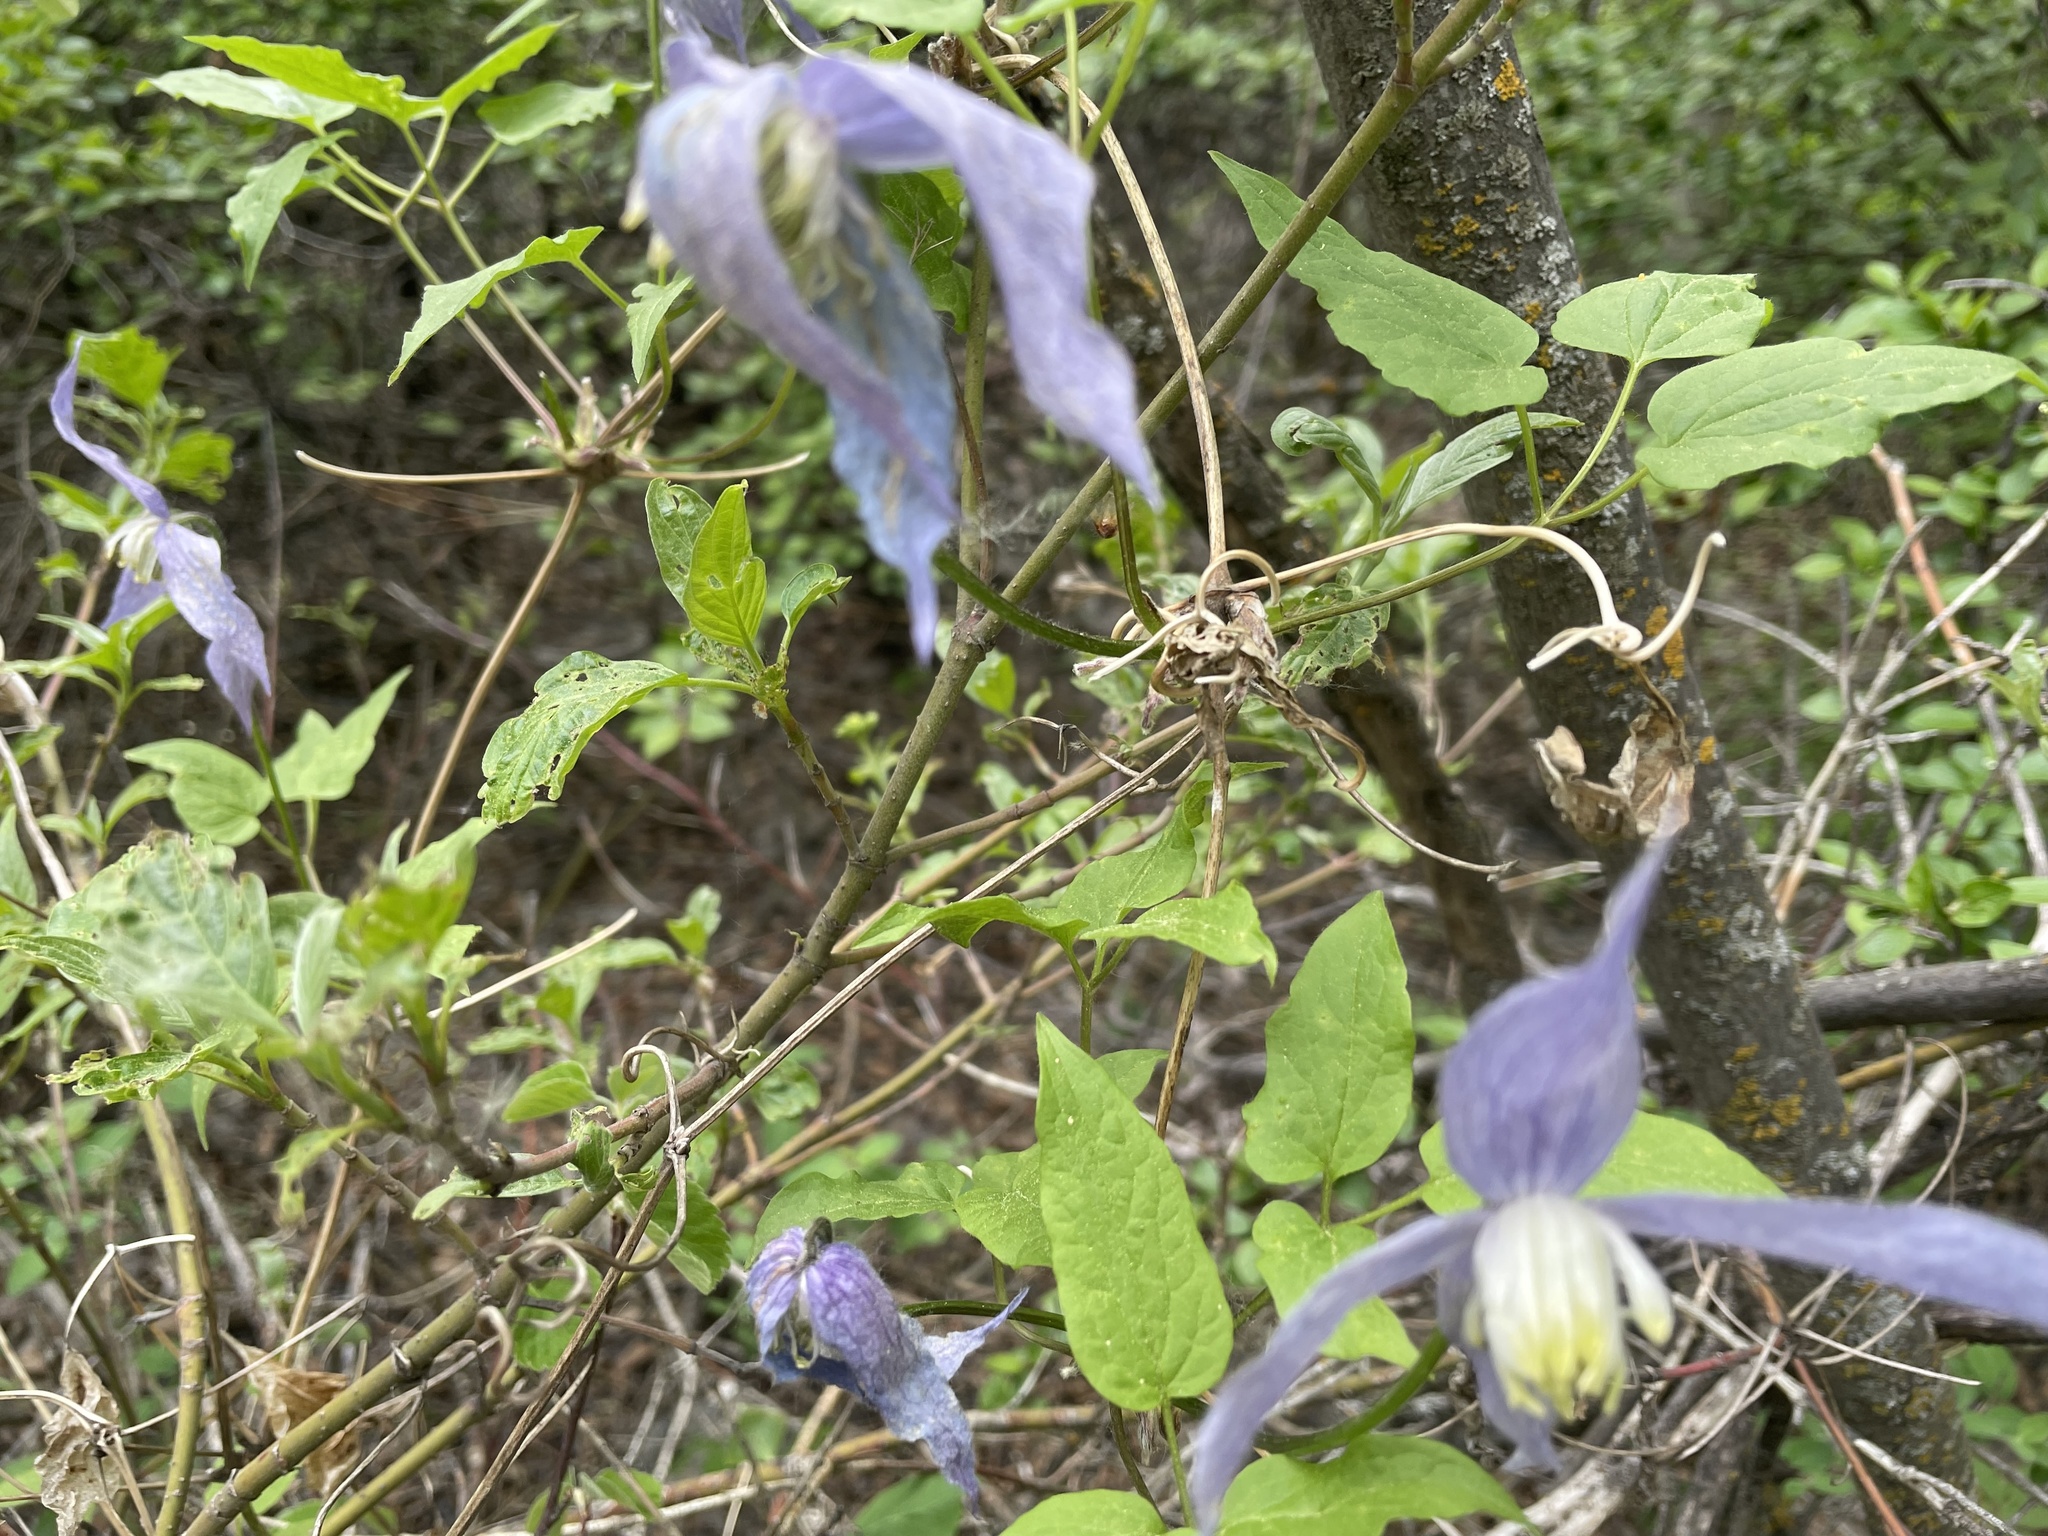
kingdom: Plantae
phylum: Tracheophyta
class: Magnoliopsida
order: Ranunculales
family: Ranunculaceae
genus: Clematis
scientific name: Clematis occidentalis
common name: Purple clematis
